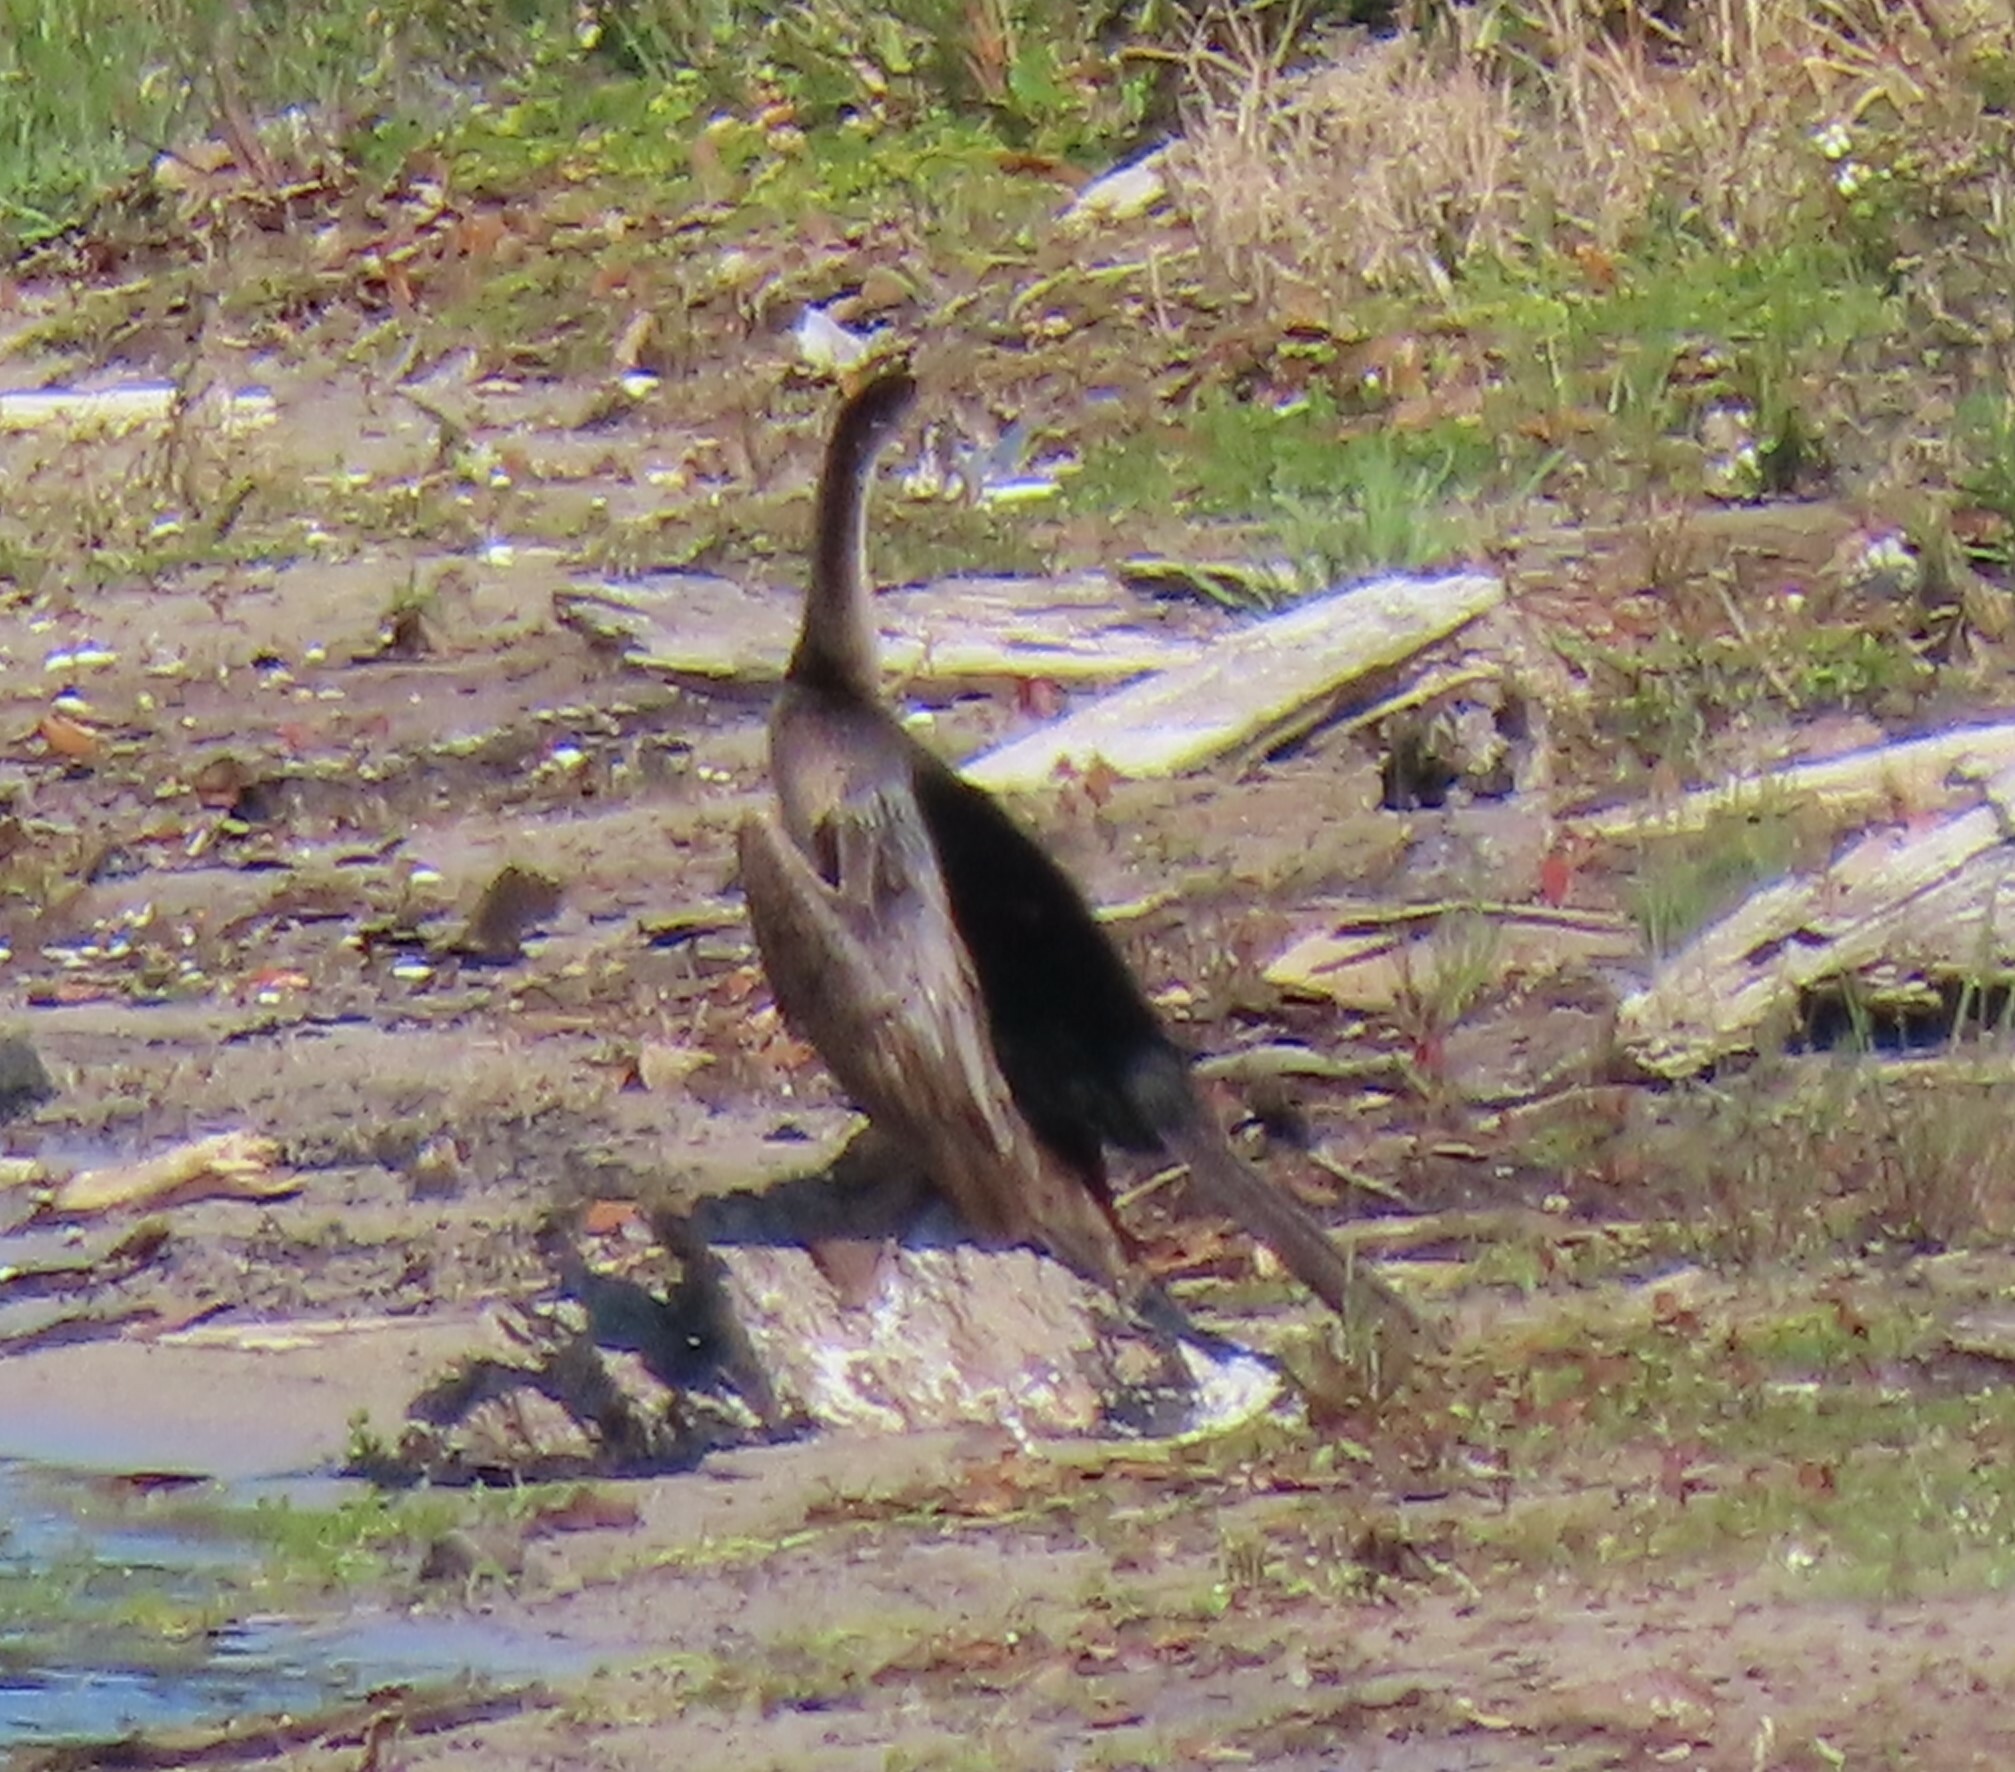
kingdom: Animalia
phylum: Chordata
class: Aves
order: Suliformes
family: Anhingidae
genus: Anhinga
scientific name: Anhinga anhinga
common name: Anhinga
